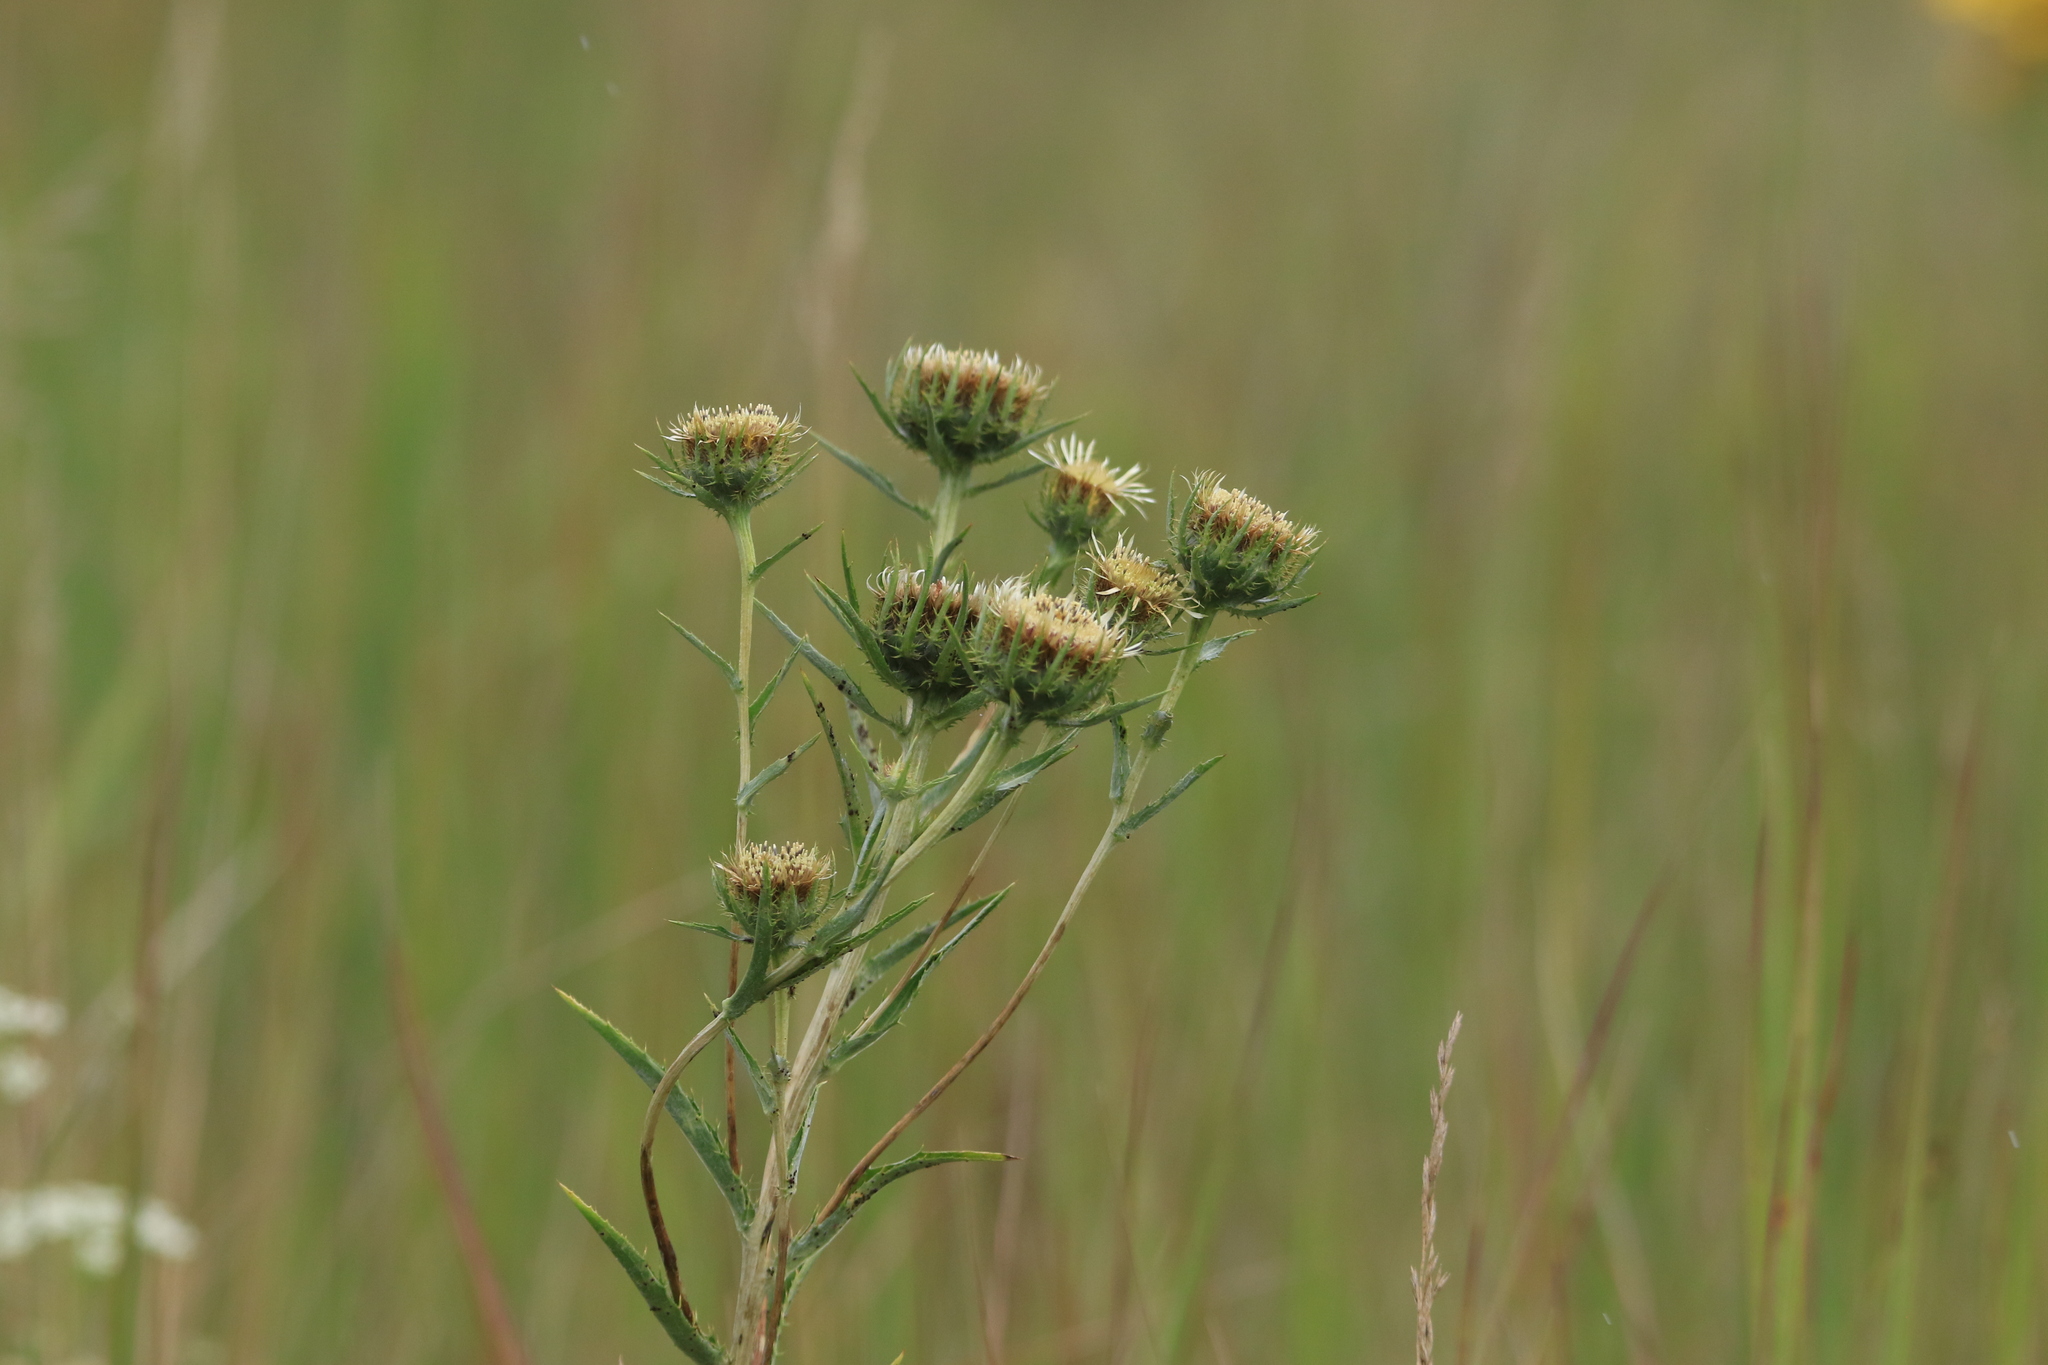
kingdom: Plantae
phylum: Tracheophyta
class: Magnoliopsida
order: Asterales
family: Asteraceae
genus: Carlina
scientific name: Carlina biebersteinii
